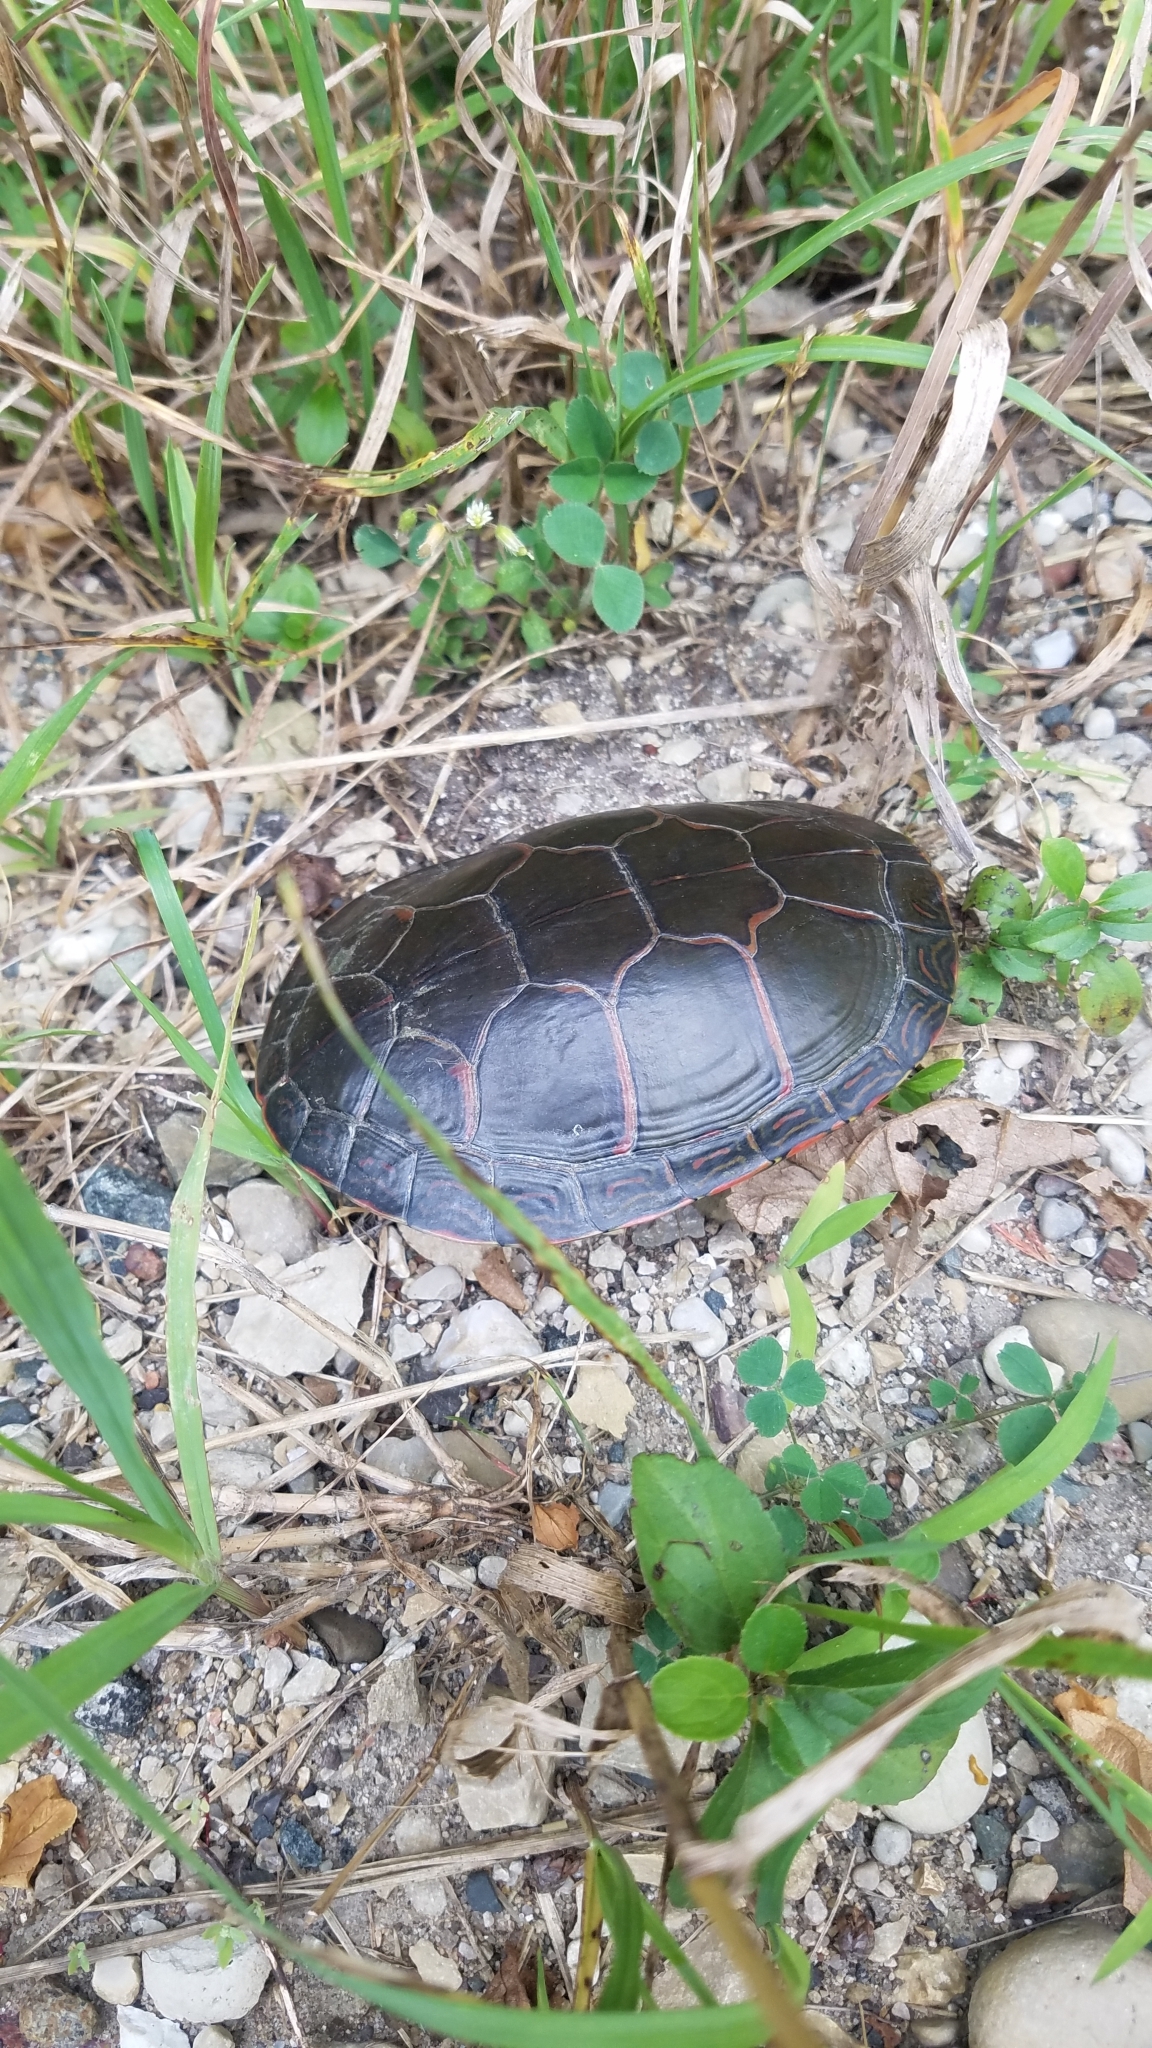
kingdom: Animalia
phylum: Chordata
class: Testudines
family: Emydidae
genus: Chrysemys
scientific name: Chrysemys picta
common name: Painted turtle
